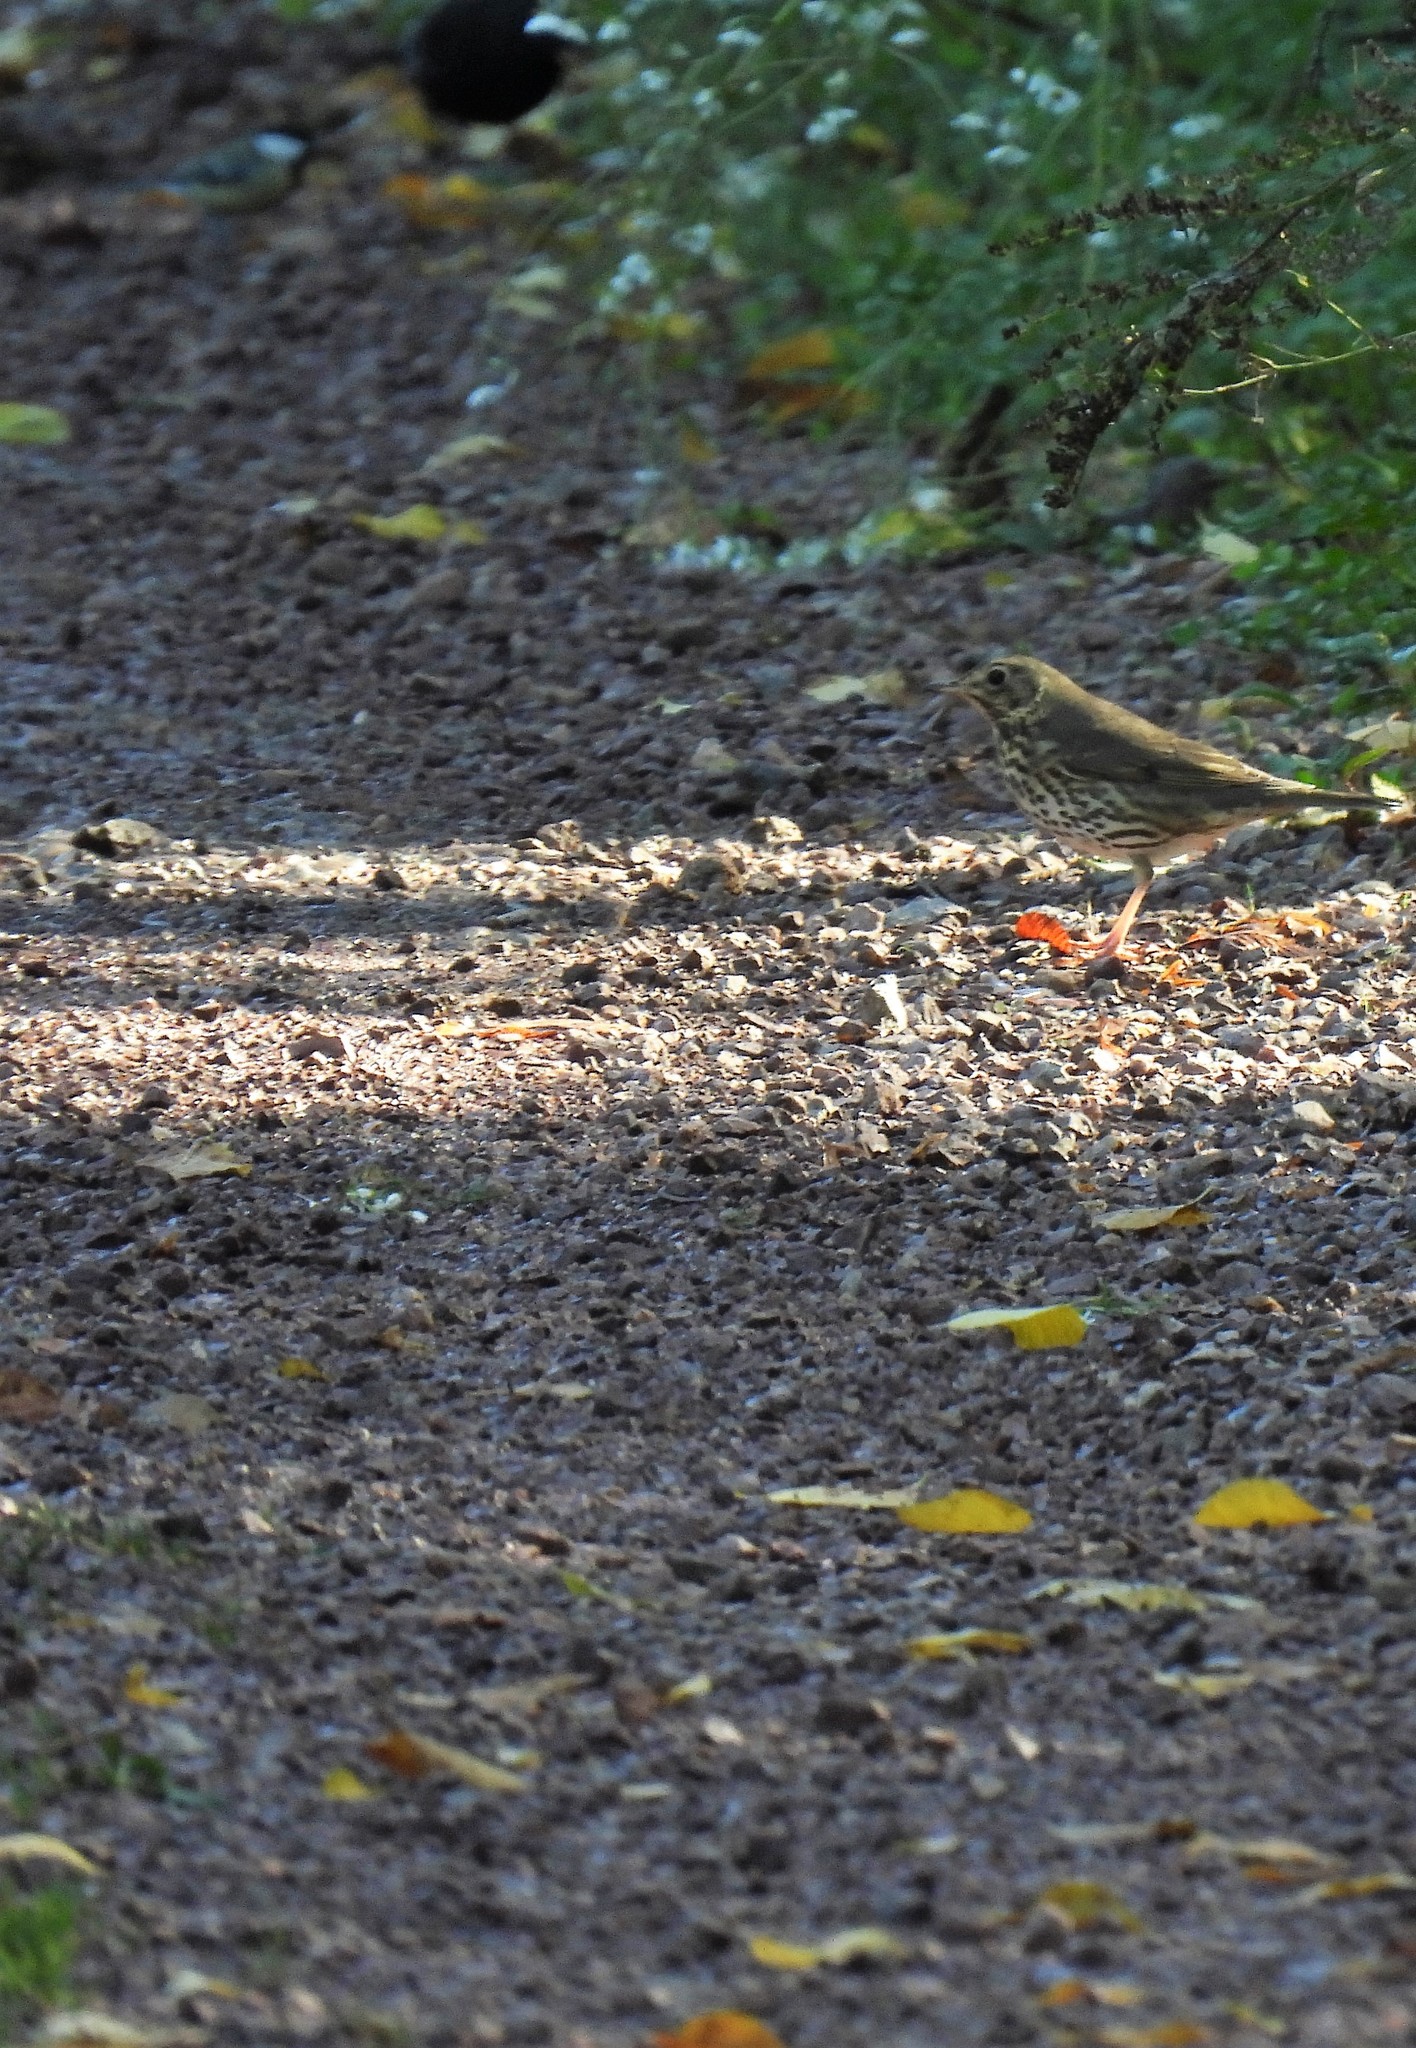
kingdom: Animalia
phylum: Chordata
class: Aves
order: Passeriformes
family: Turdidae
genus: Turdus
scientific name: Turdus philomelos
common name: Song thrush
